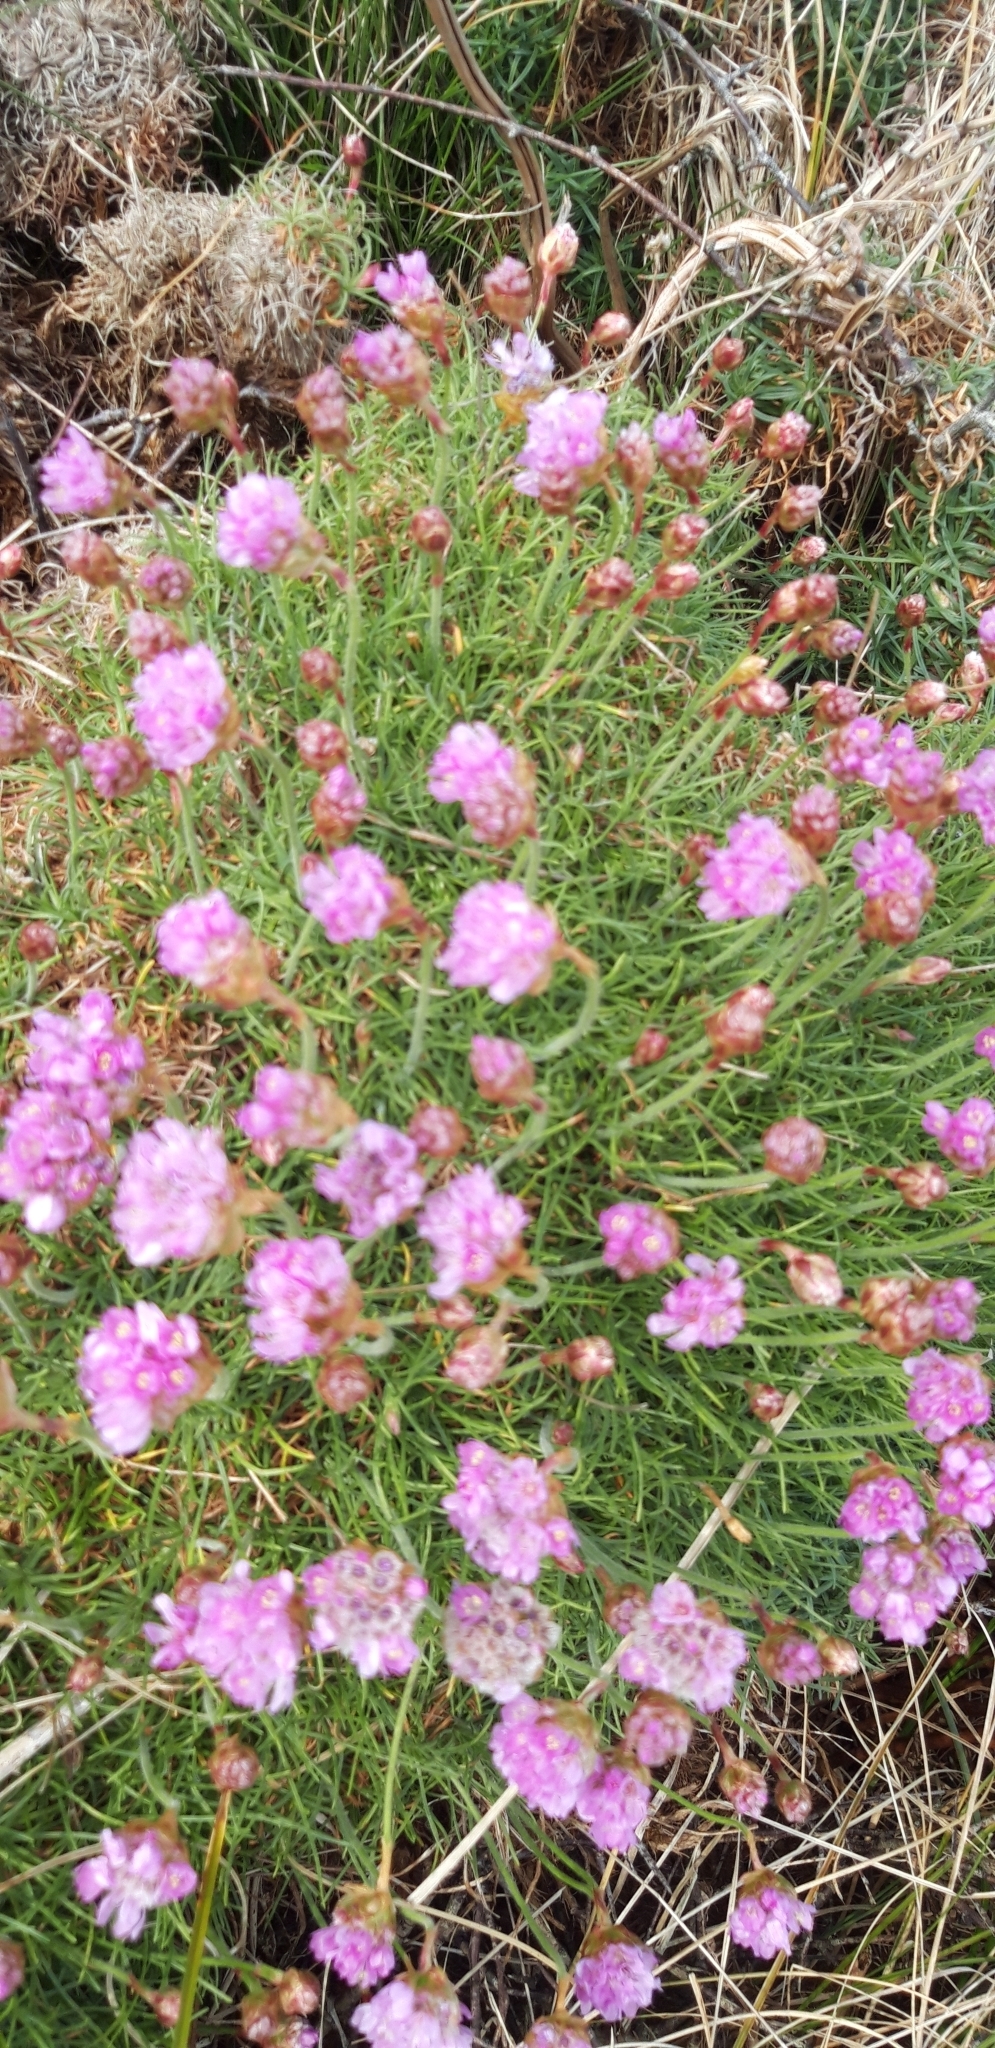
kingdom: Plantae
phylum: Tracheophyta
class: Magnoliopsida
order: Caryophyllales
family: Plumbaginaceae
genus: Armeria
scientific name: Armeria maritima
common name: Thrift
